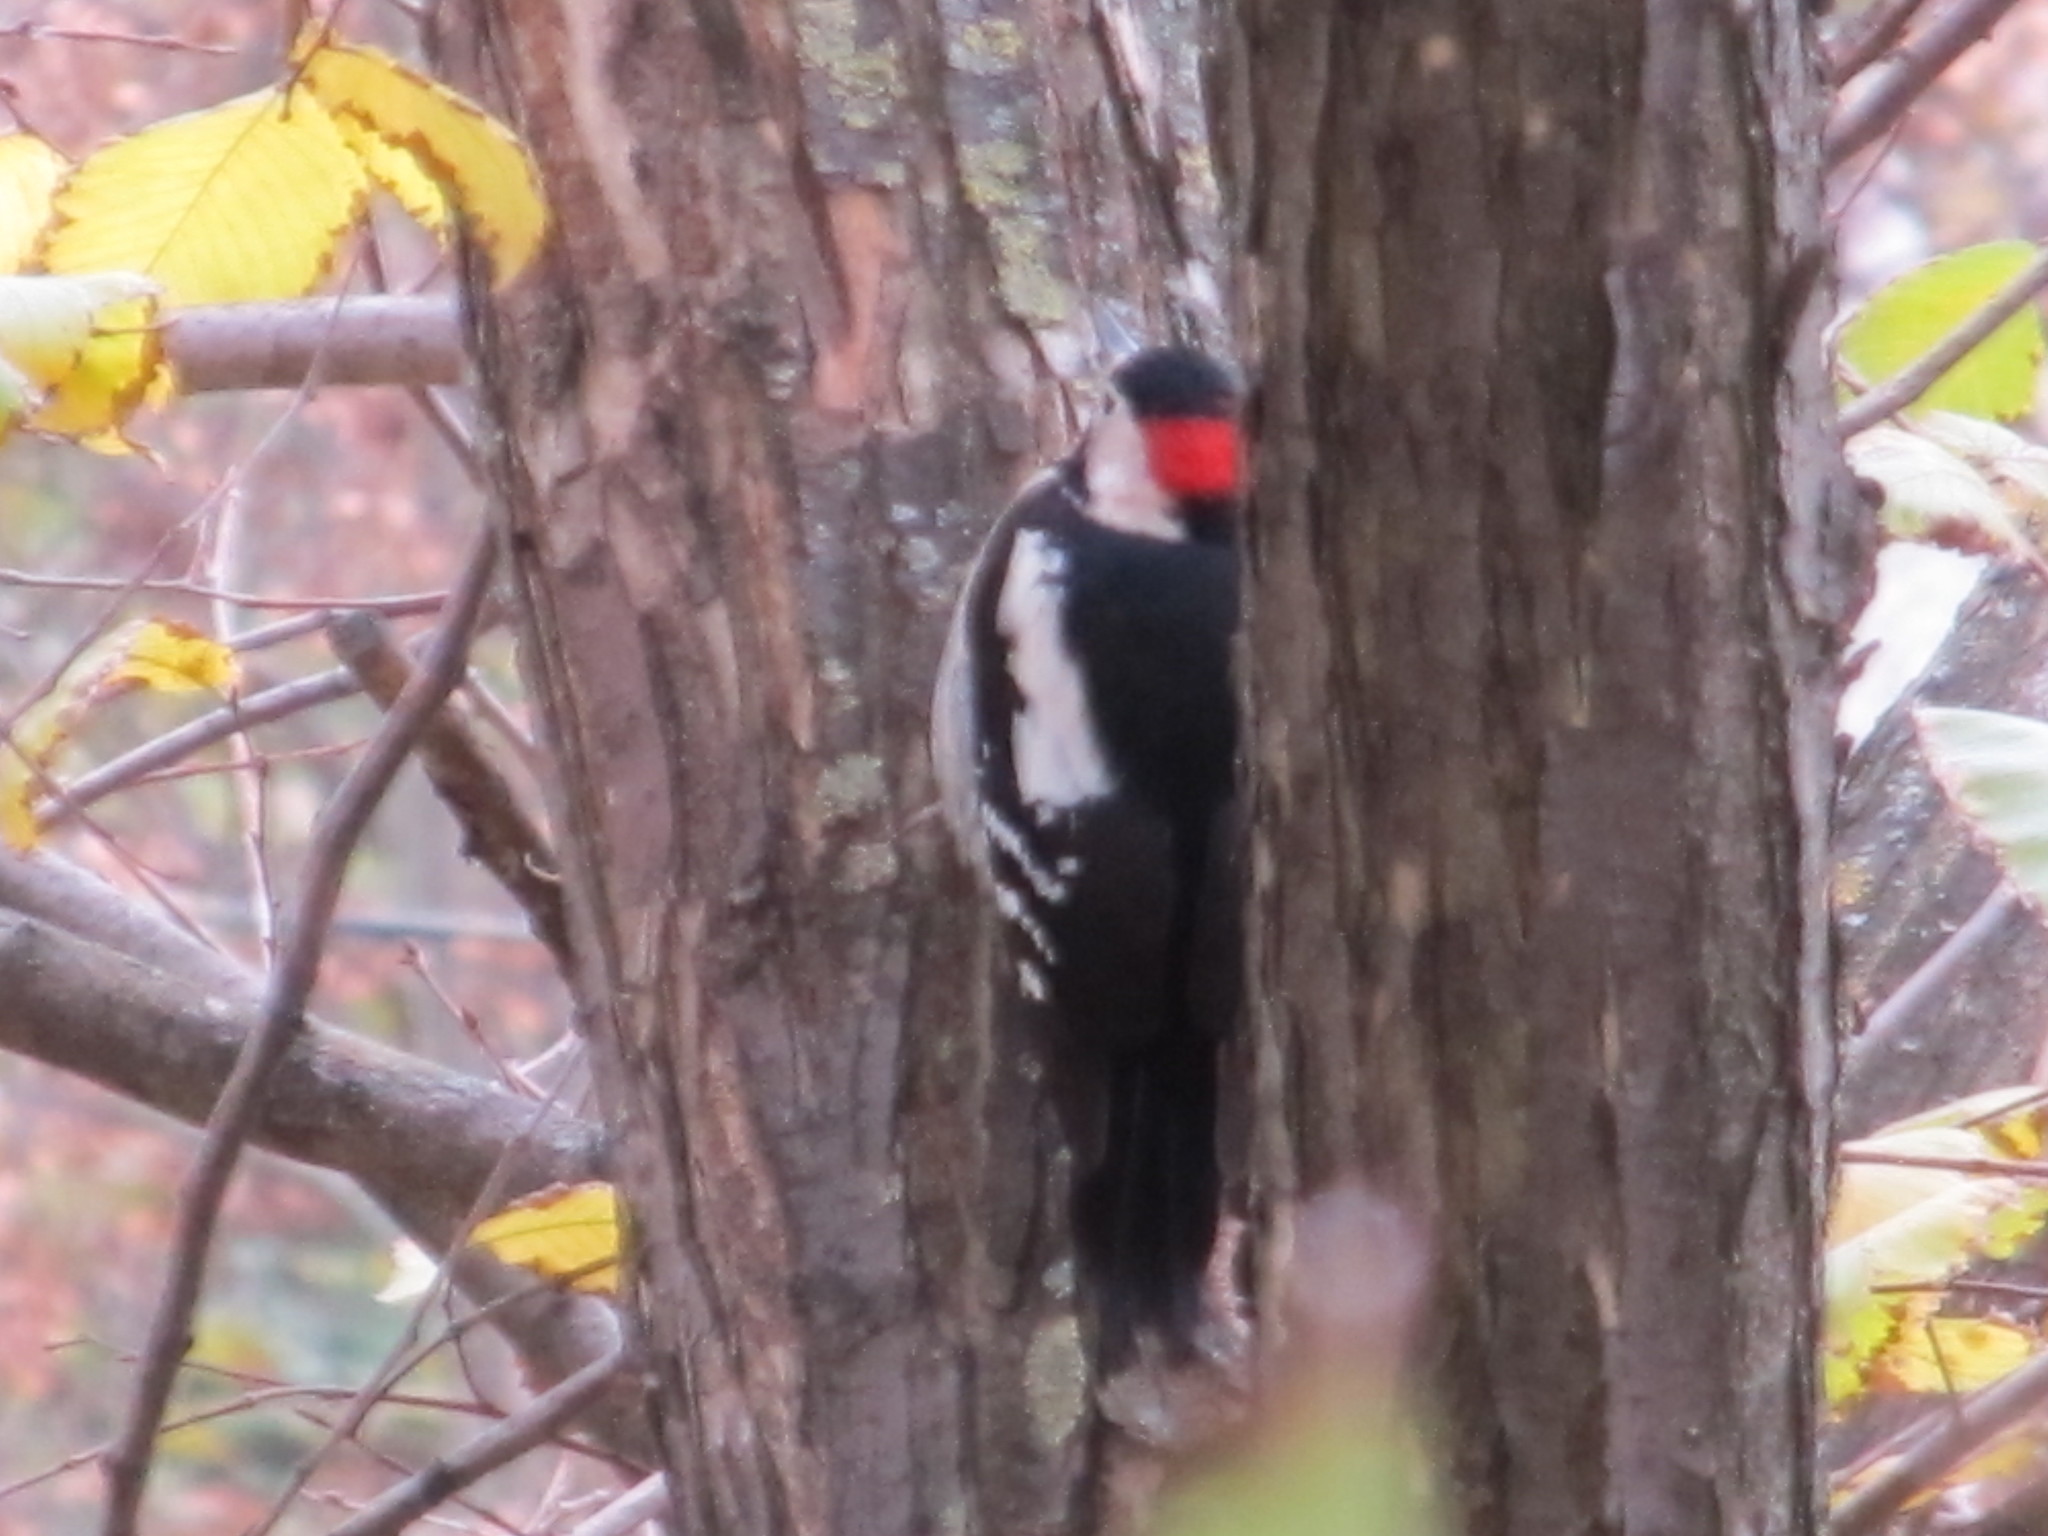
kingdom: Animalia
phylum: Chordata
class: Aves
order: Piciformes
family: Picidae
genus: Dendrocopos
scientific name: Dendrocopos syriacus
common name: Syrian woodpecker
